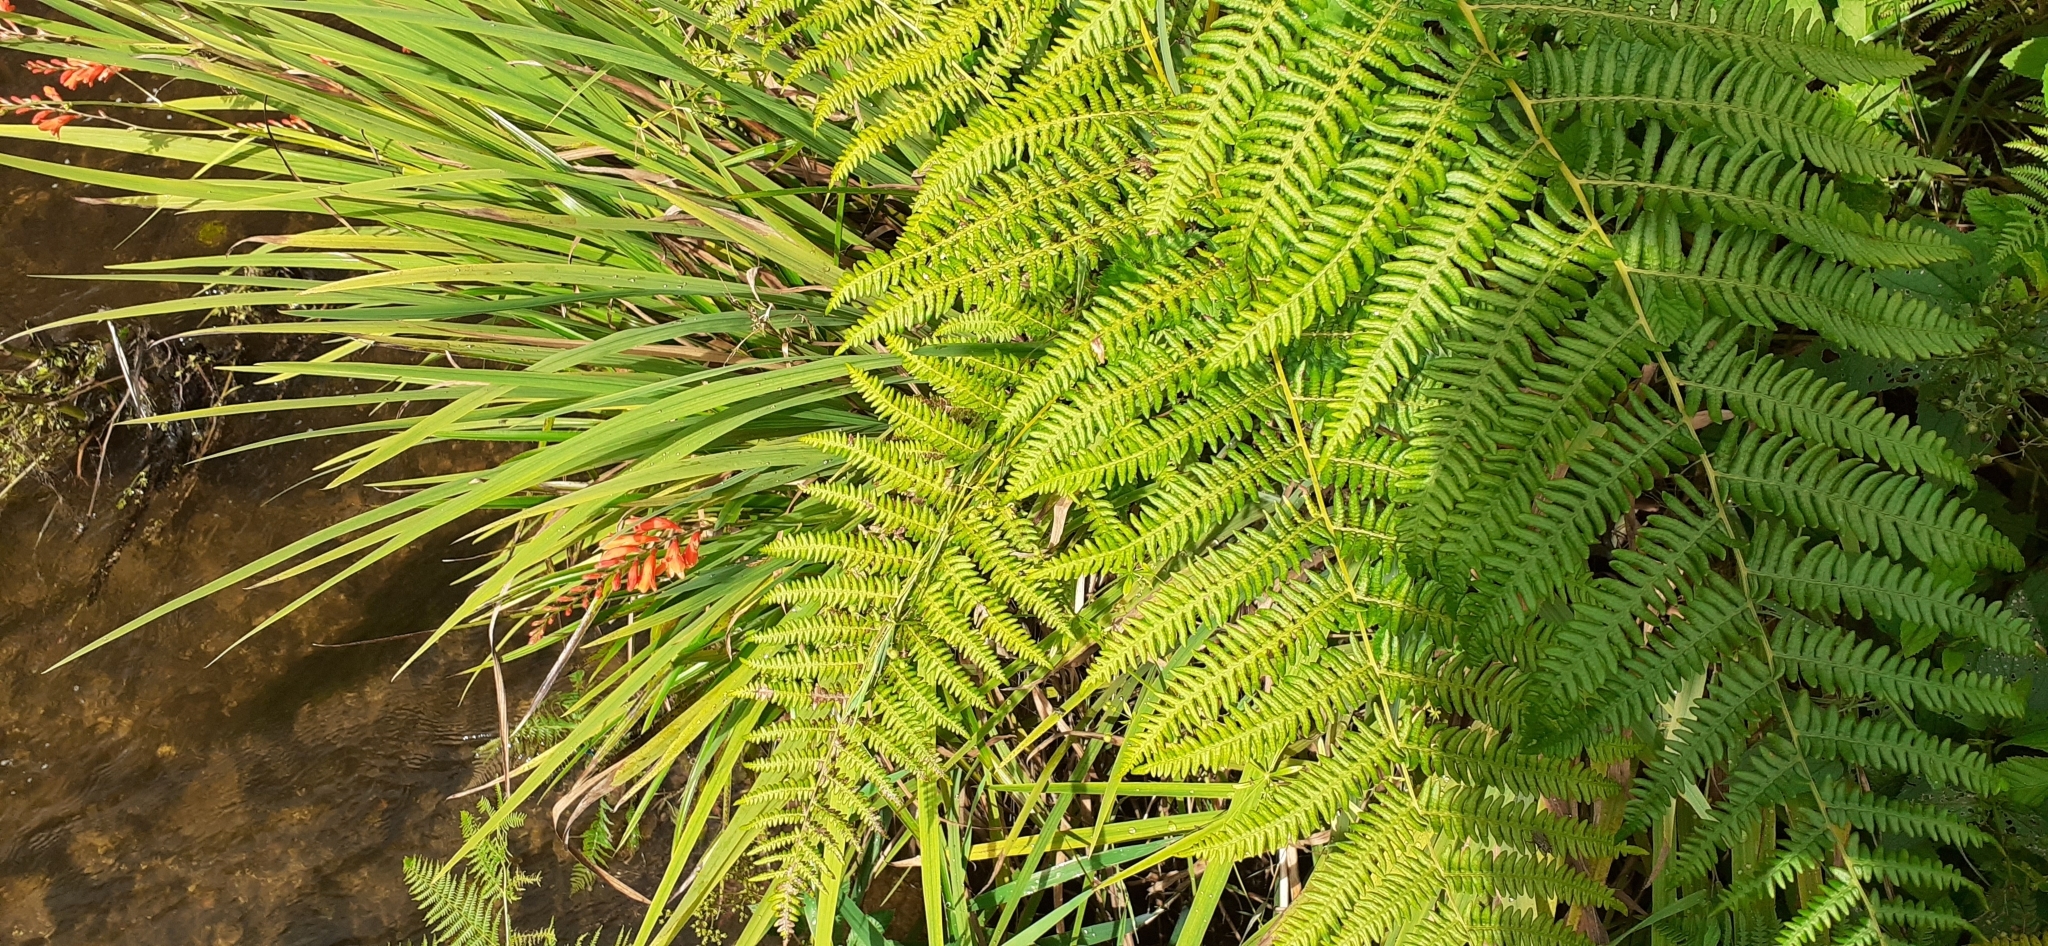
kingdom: Plantae
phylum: Tracheophyta
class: Liliopsida
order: Asparagales
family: Iridaceae
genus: Crocosmia
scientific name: Crocosmia crocosmiiflora
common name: Montbretia
